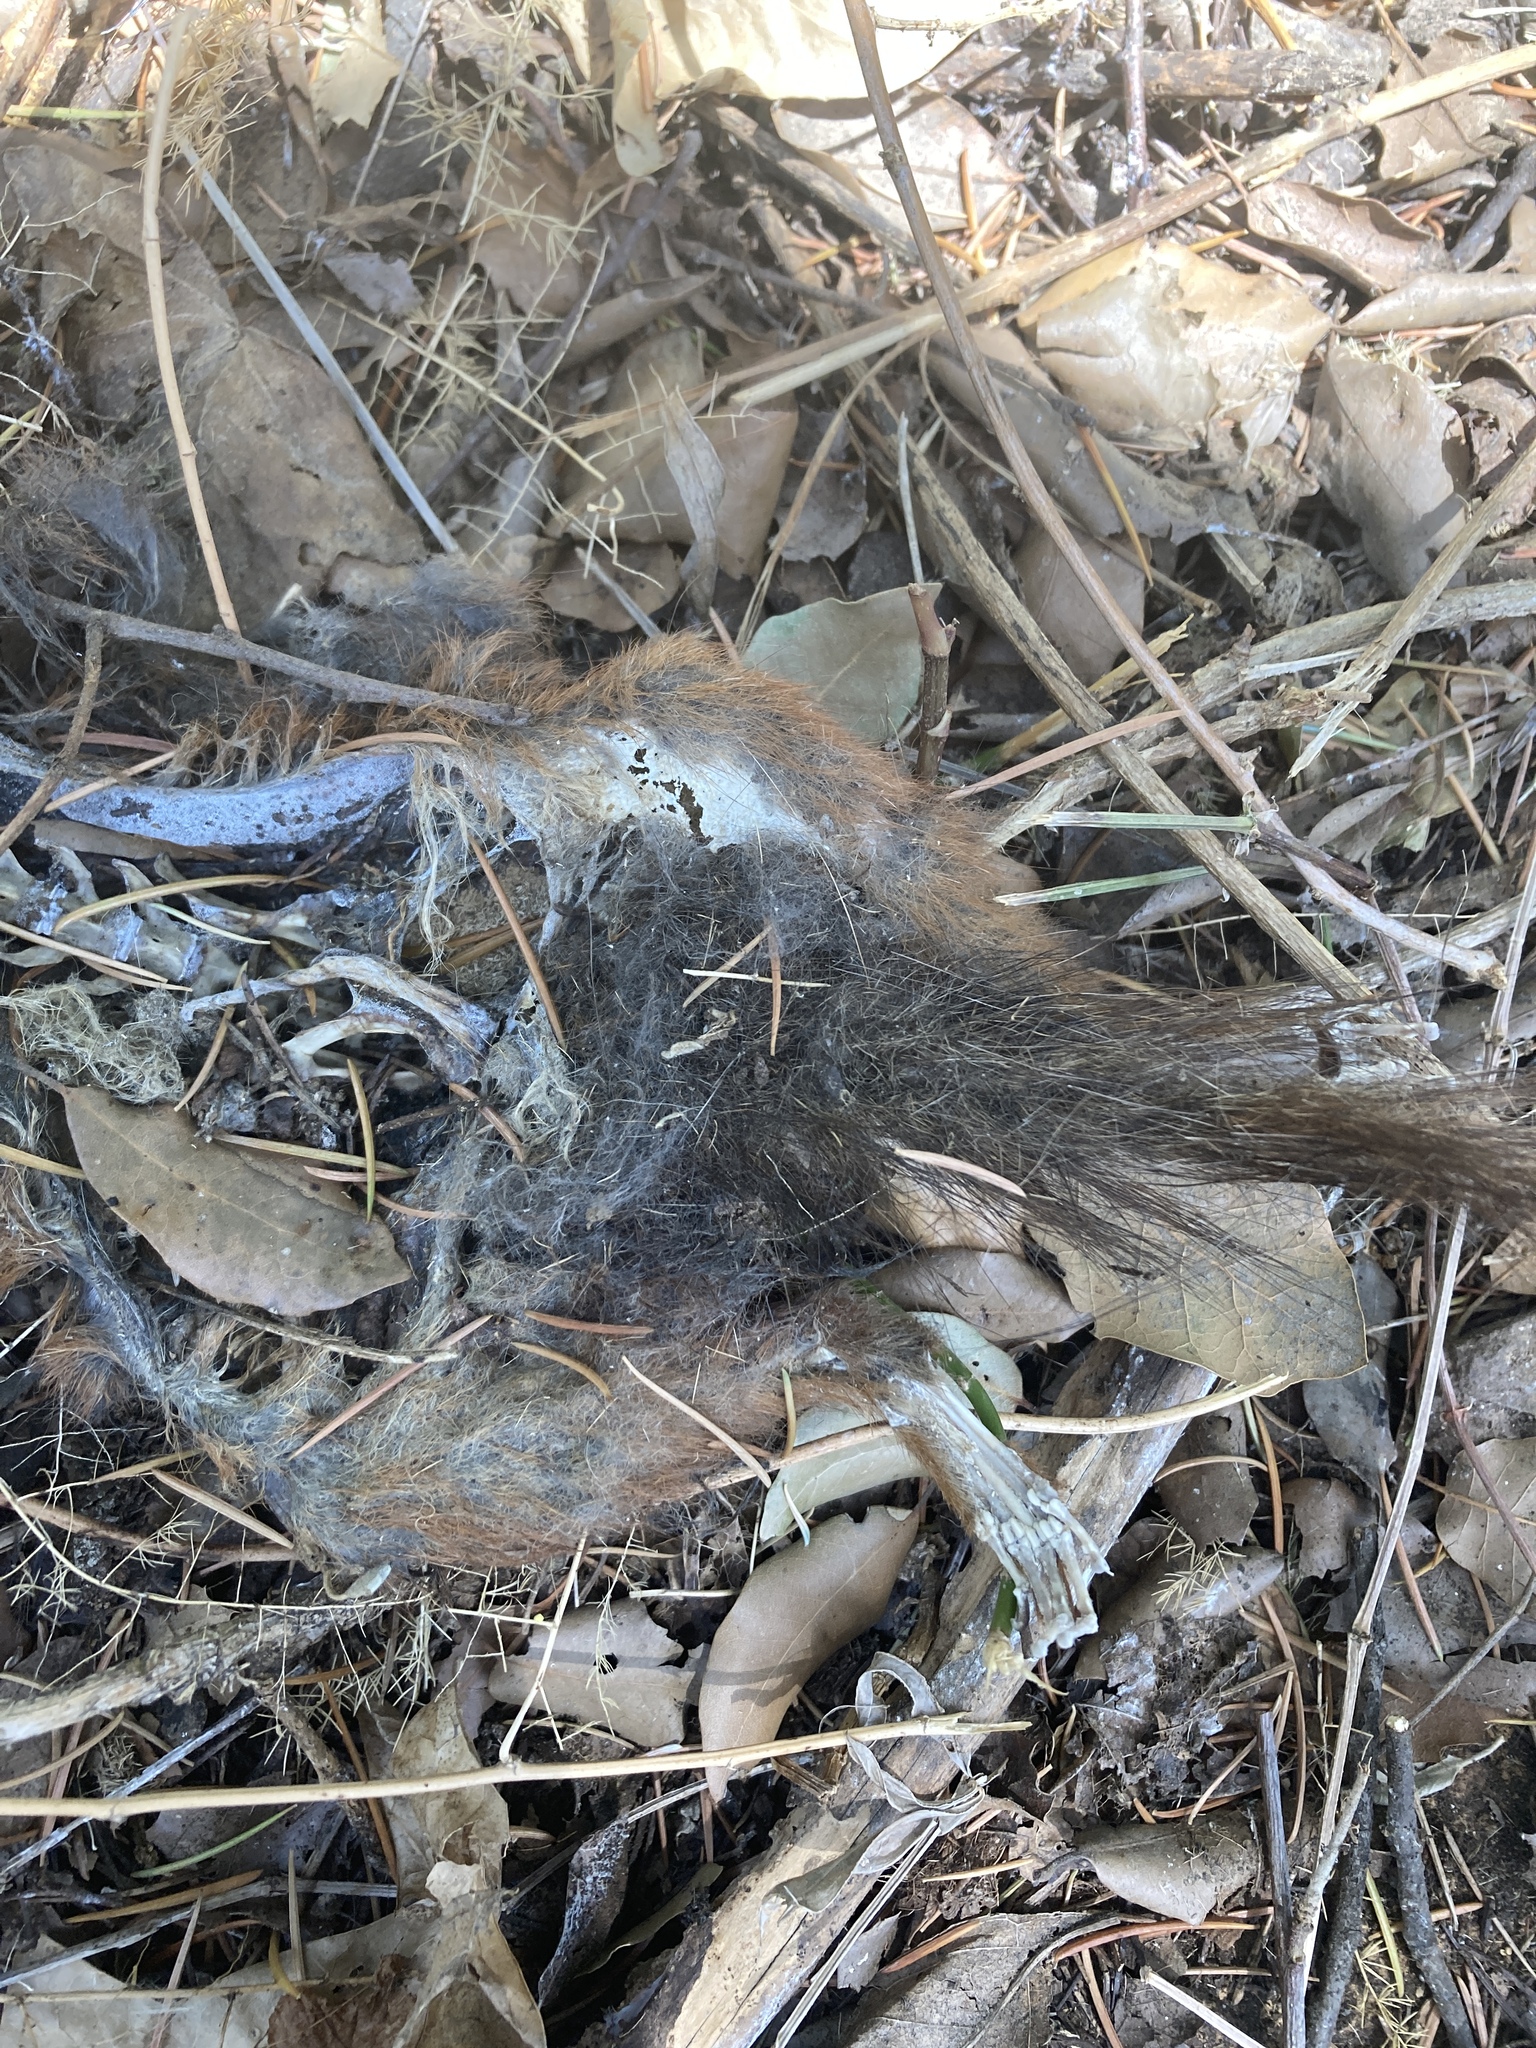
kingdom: Animalia
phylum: Chordata
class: Mammalia
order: Rodentia
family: Sciuridae
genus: Sciurus
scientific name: Sciurus vulgaris
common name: Eurasian red squirrel
